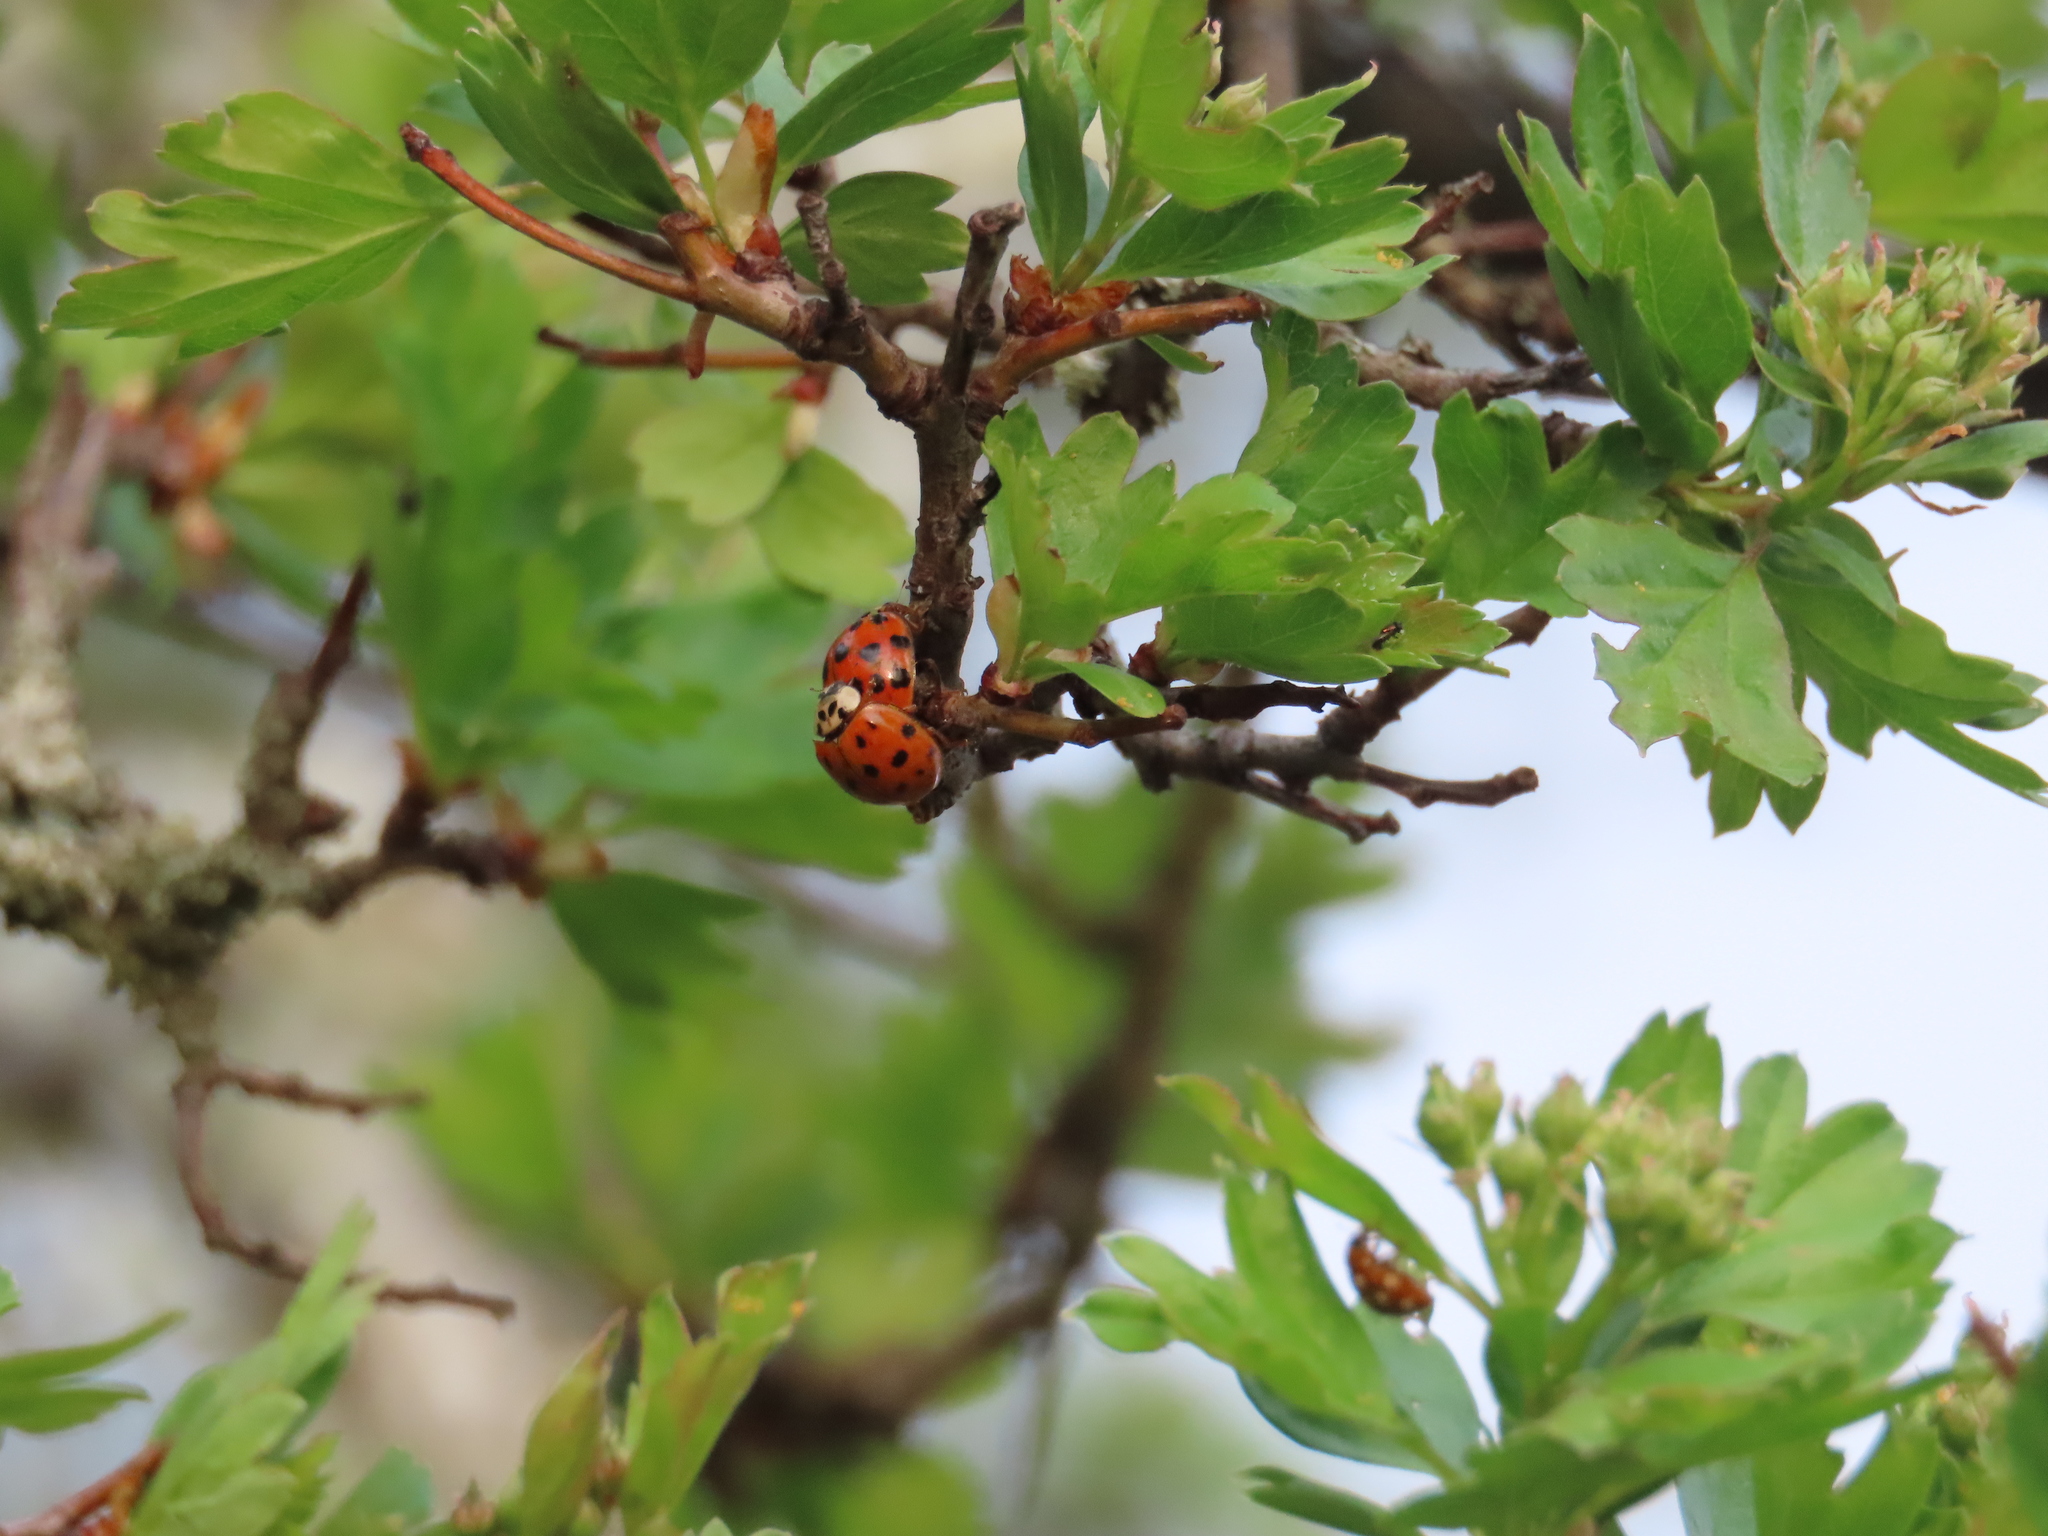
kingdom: Animalia
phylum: Arthropoda
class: Insecta
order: Coleoptera
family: Coccinellidae
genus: Harmonia
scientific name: Harmonia axyridis
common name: Harlequin ladybird
